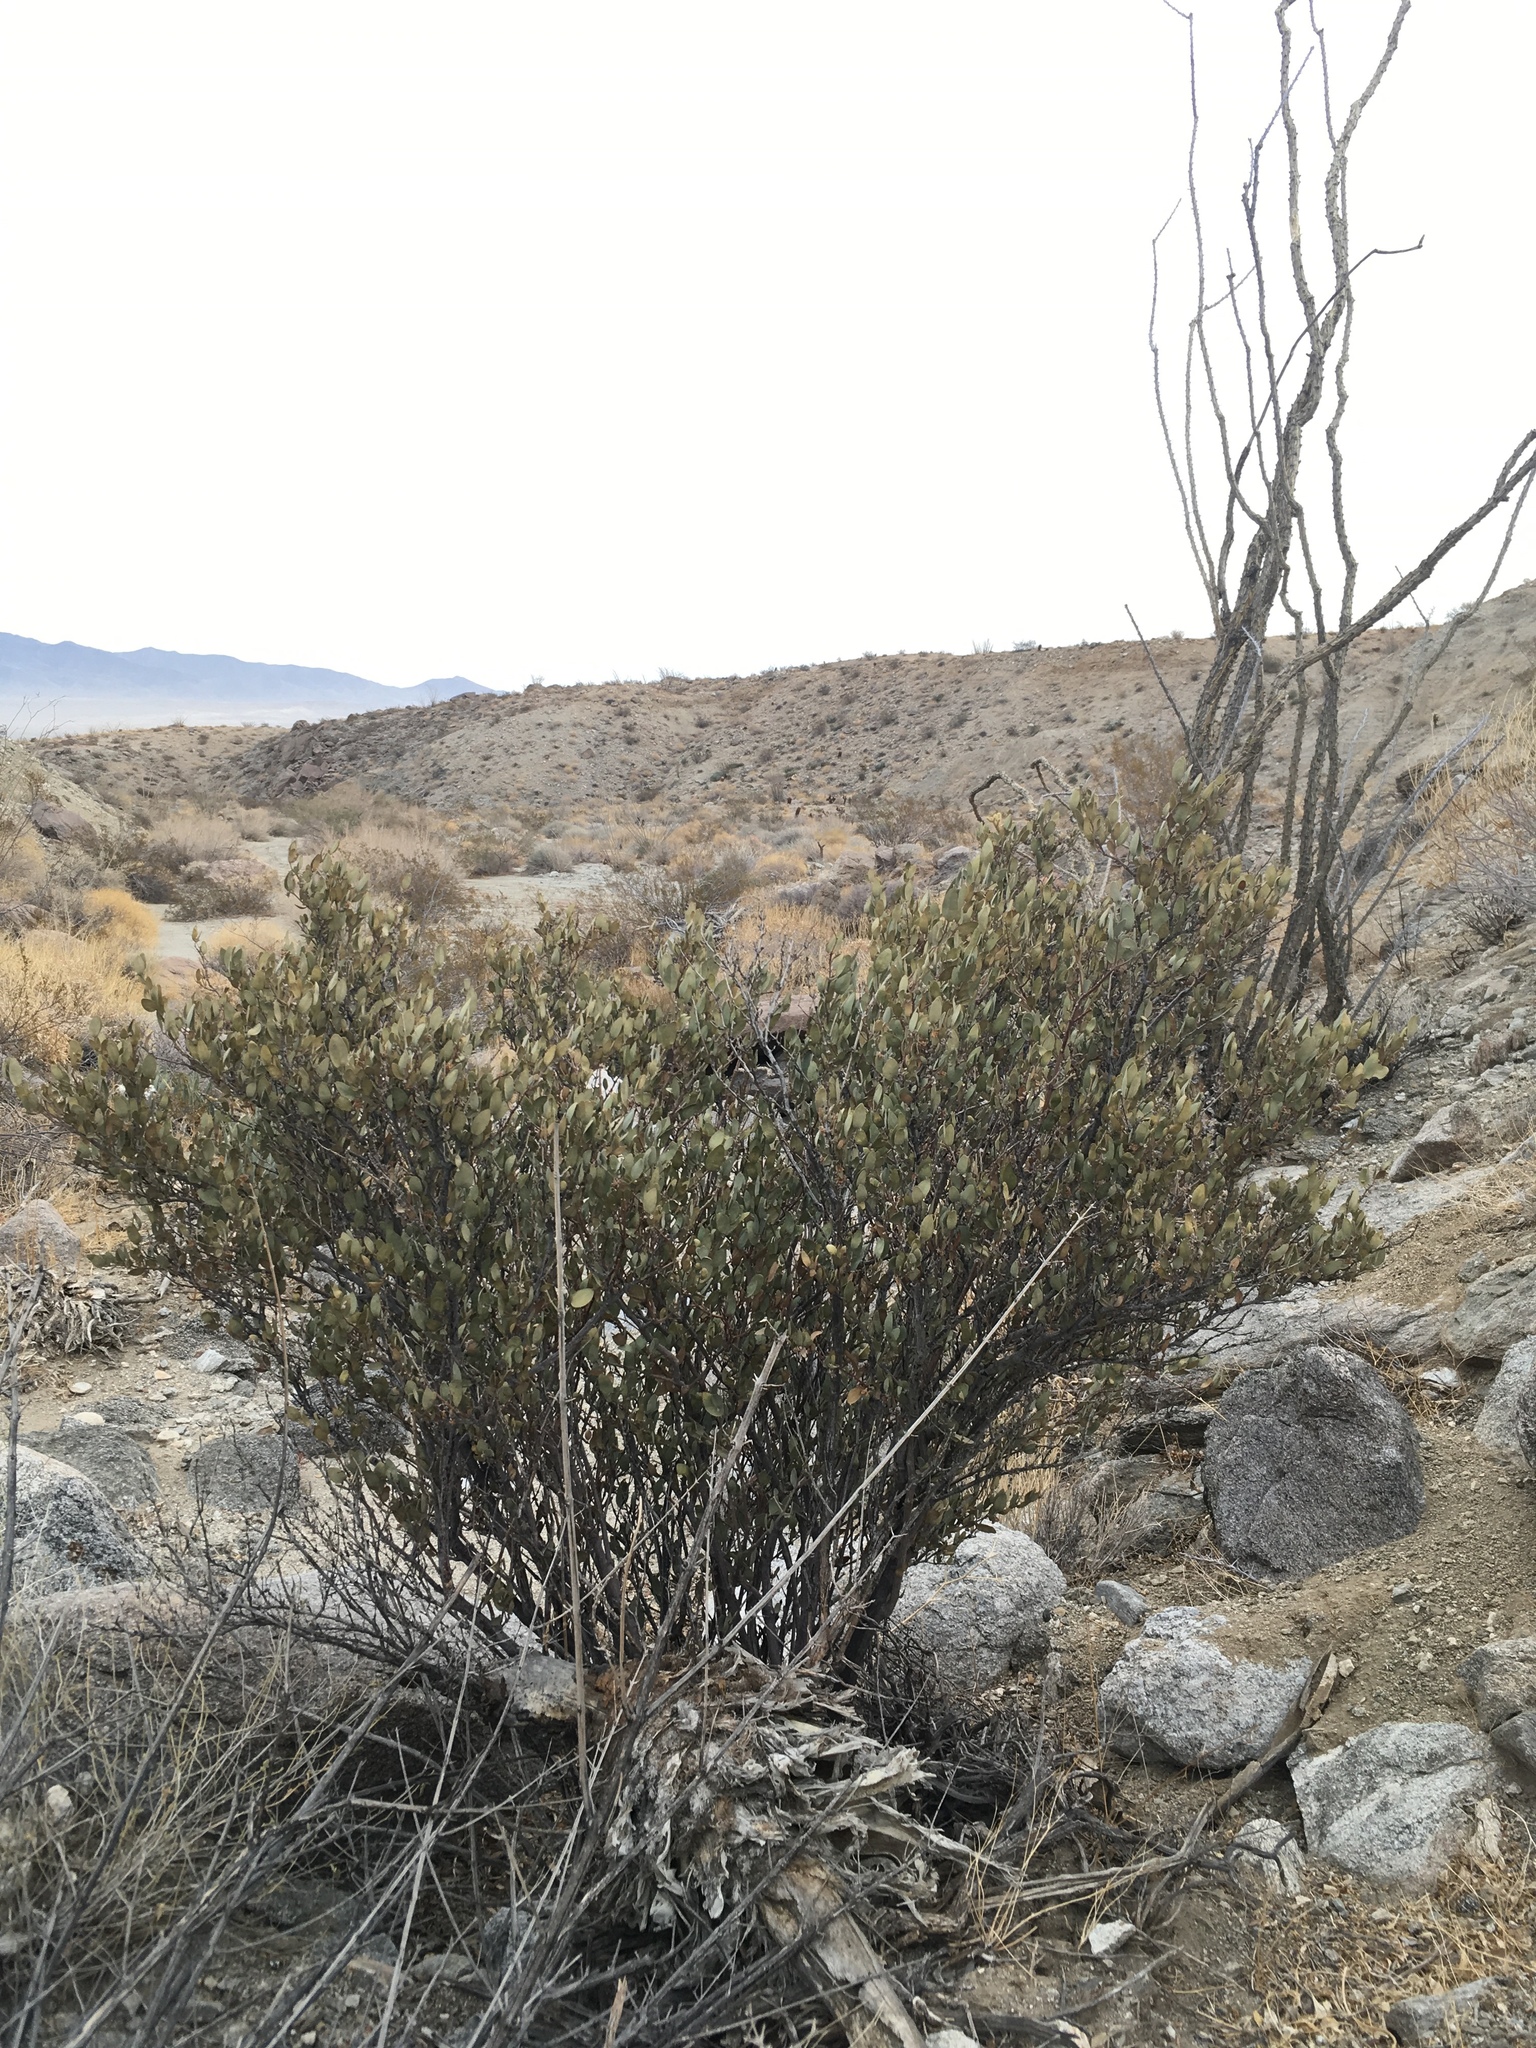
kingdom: Plantae
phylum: Tracheophyta
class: Magnoliopsida
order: Caryophyllales
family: Simmondsiaceae
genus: Simmondsia
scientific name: Simmondsia chinensis
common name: Jojoba
